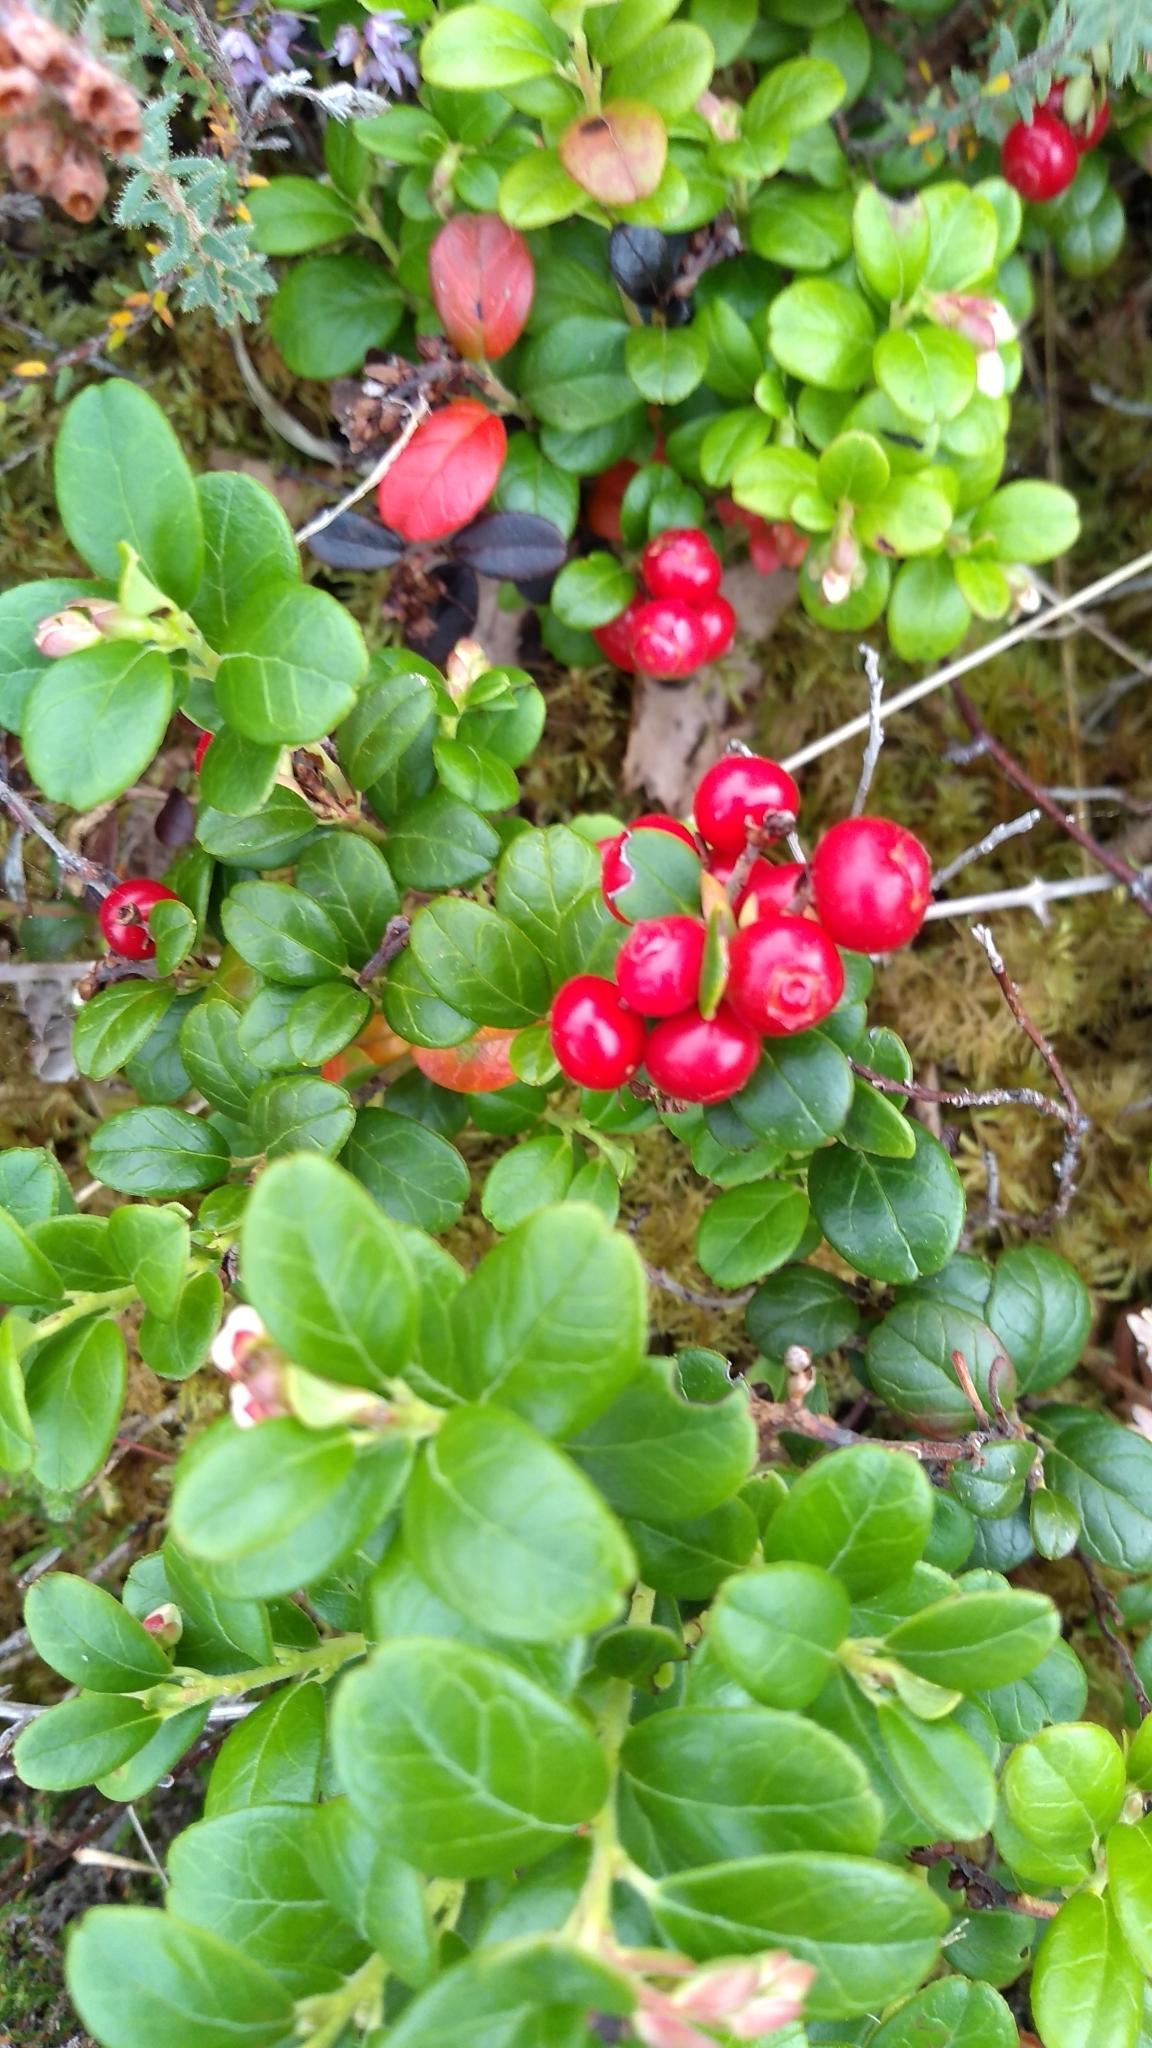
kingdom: Plantae
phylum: Tracheophyta
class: Magnoliopsida
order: Ericales
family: Ericaceae
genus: Vaccinium
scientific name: Vaccinium vitis-idaea
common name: Cowberry
